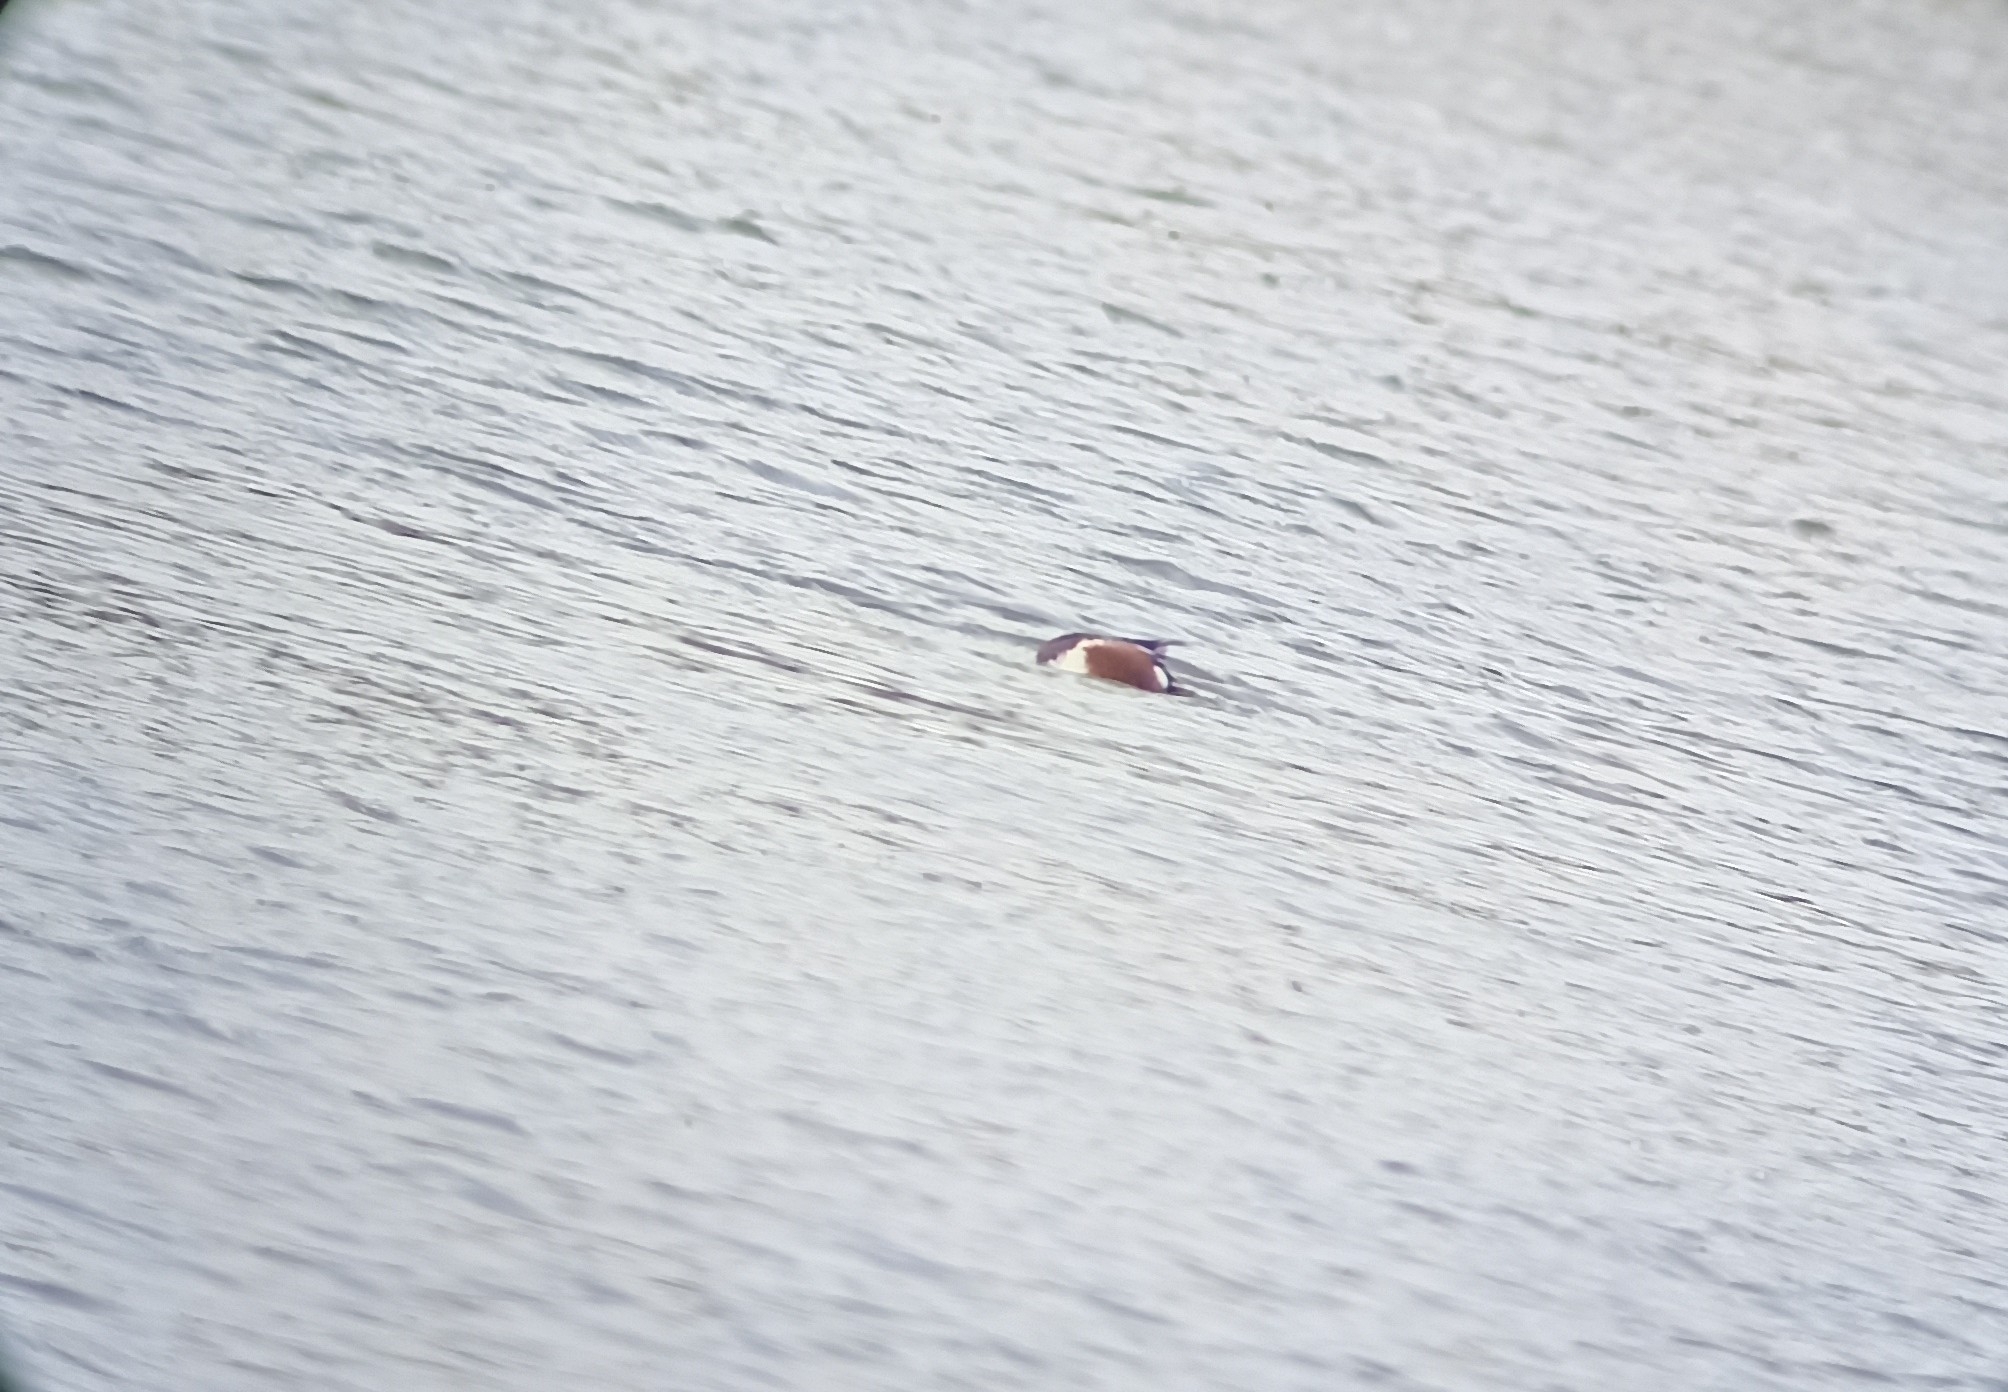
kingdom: Animalia
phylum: Chordata
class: Aves
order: Anseriformes
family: Anatidae
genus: Spatula
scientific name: Spatula clypeata
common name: Northern shoveler
